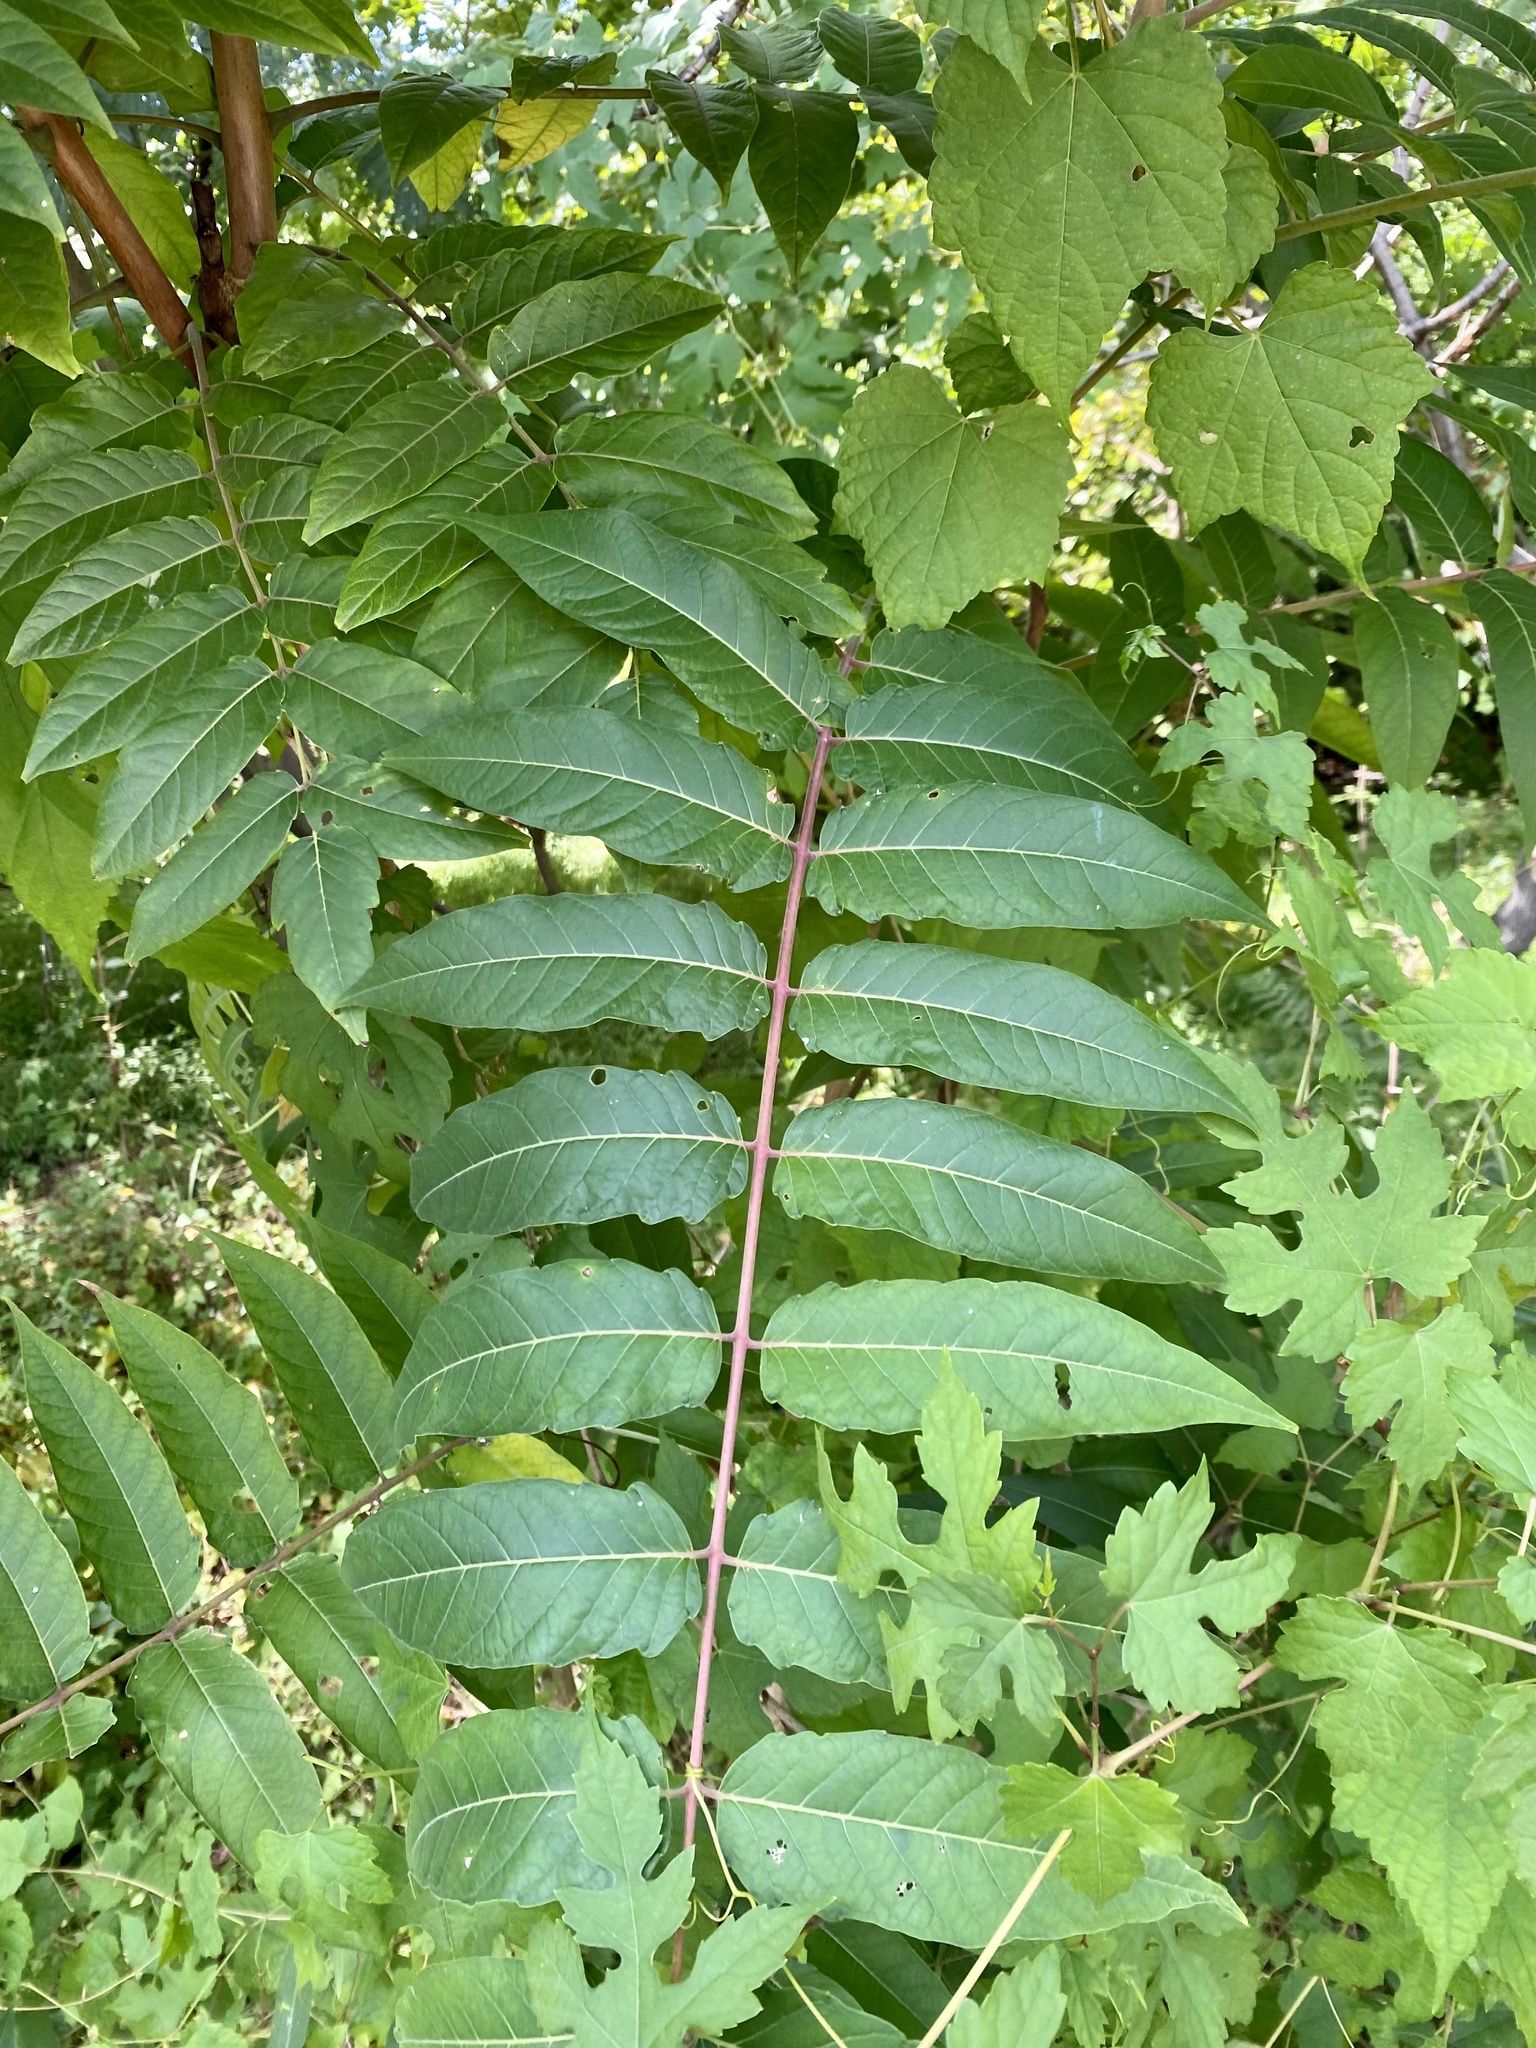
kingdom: Plantae
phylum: Tracheophyta
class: Magnoliopsida
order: Sapindales
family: Simaroubaceae
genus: Ailanthus
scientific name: Ailanthus altissima
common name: Tree-of-heaven
